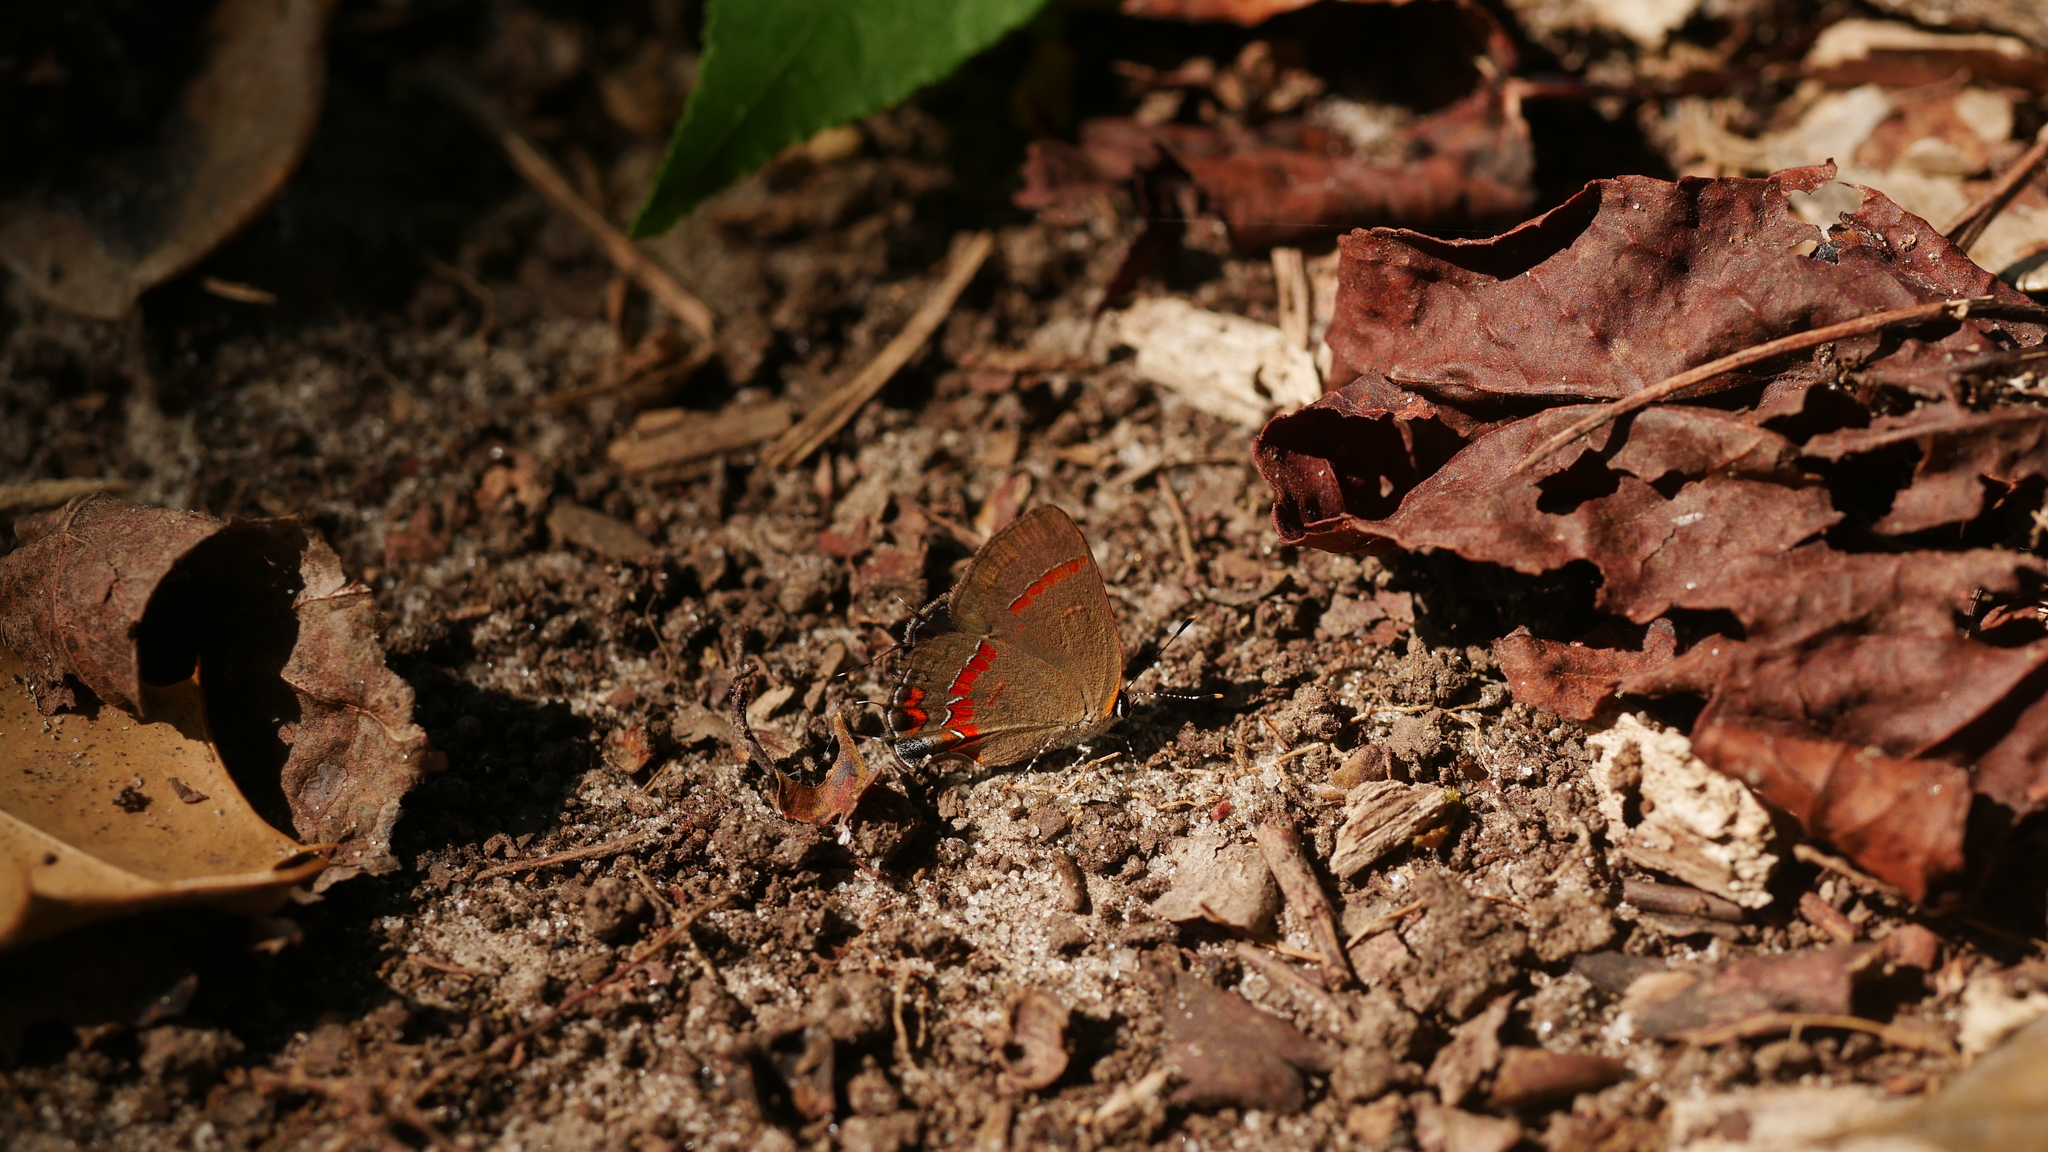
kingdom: Animalia
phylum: Arthropoda
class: Insecta
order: Lepidoptera
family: Lycaenidae
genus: Calycopis
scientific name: Calycopis cecrops
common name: Red-banded hairstreak
